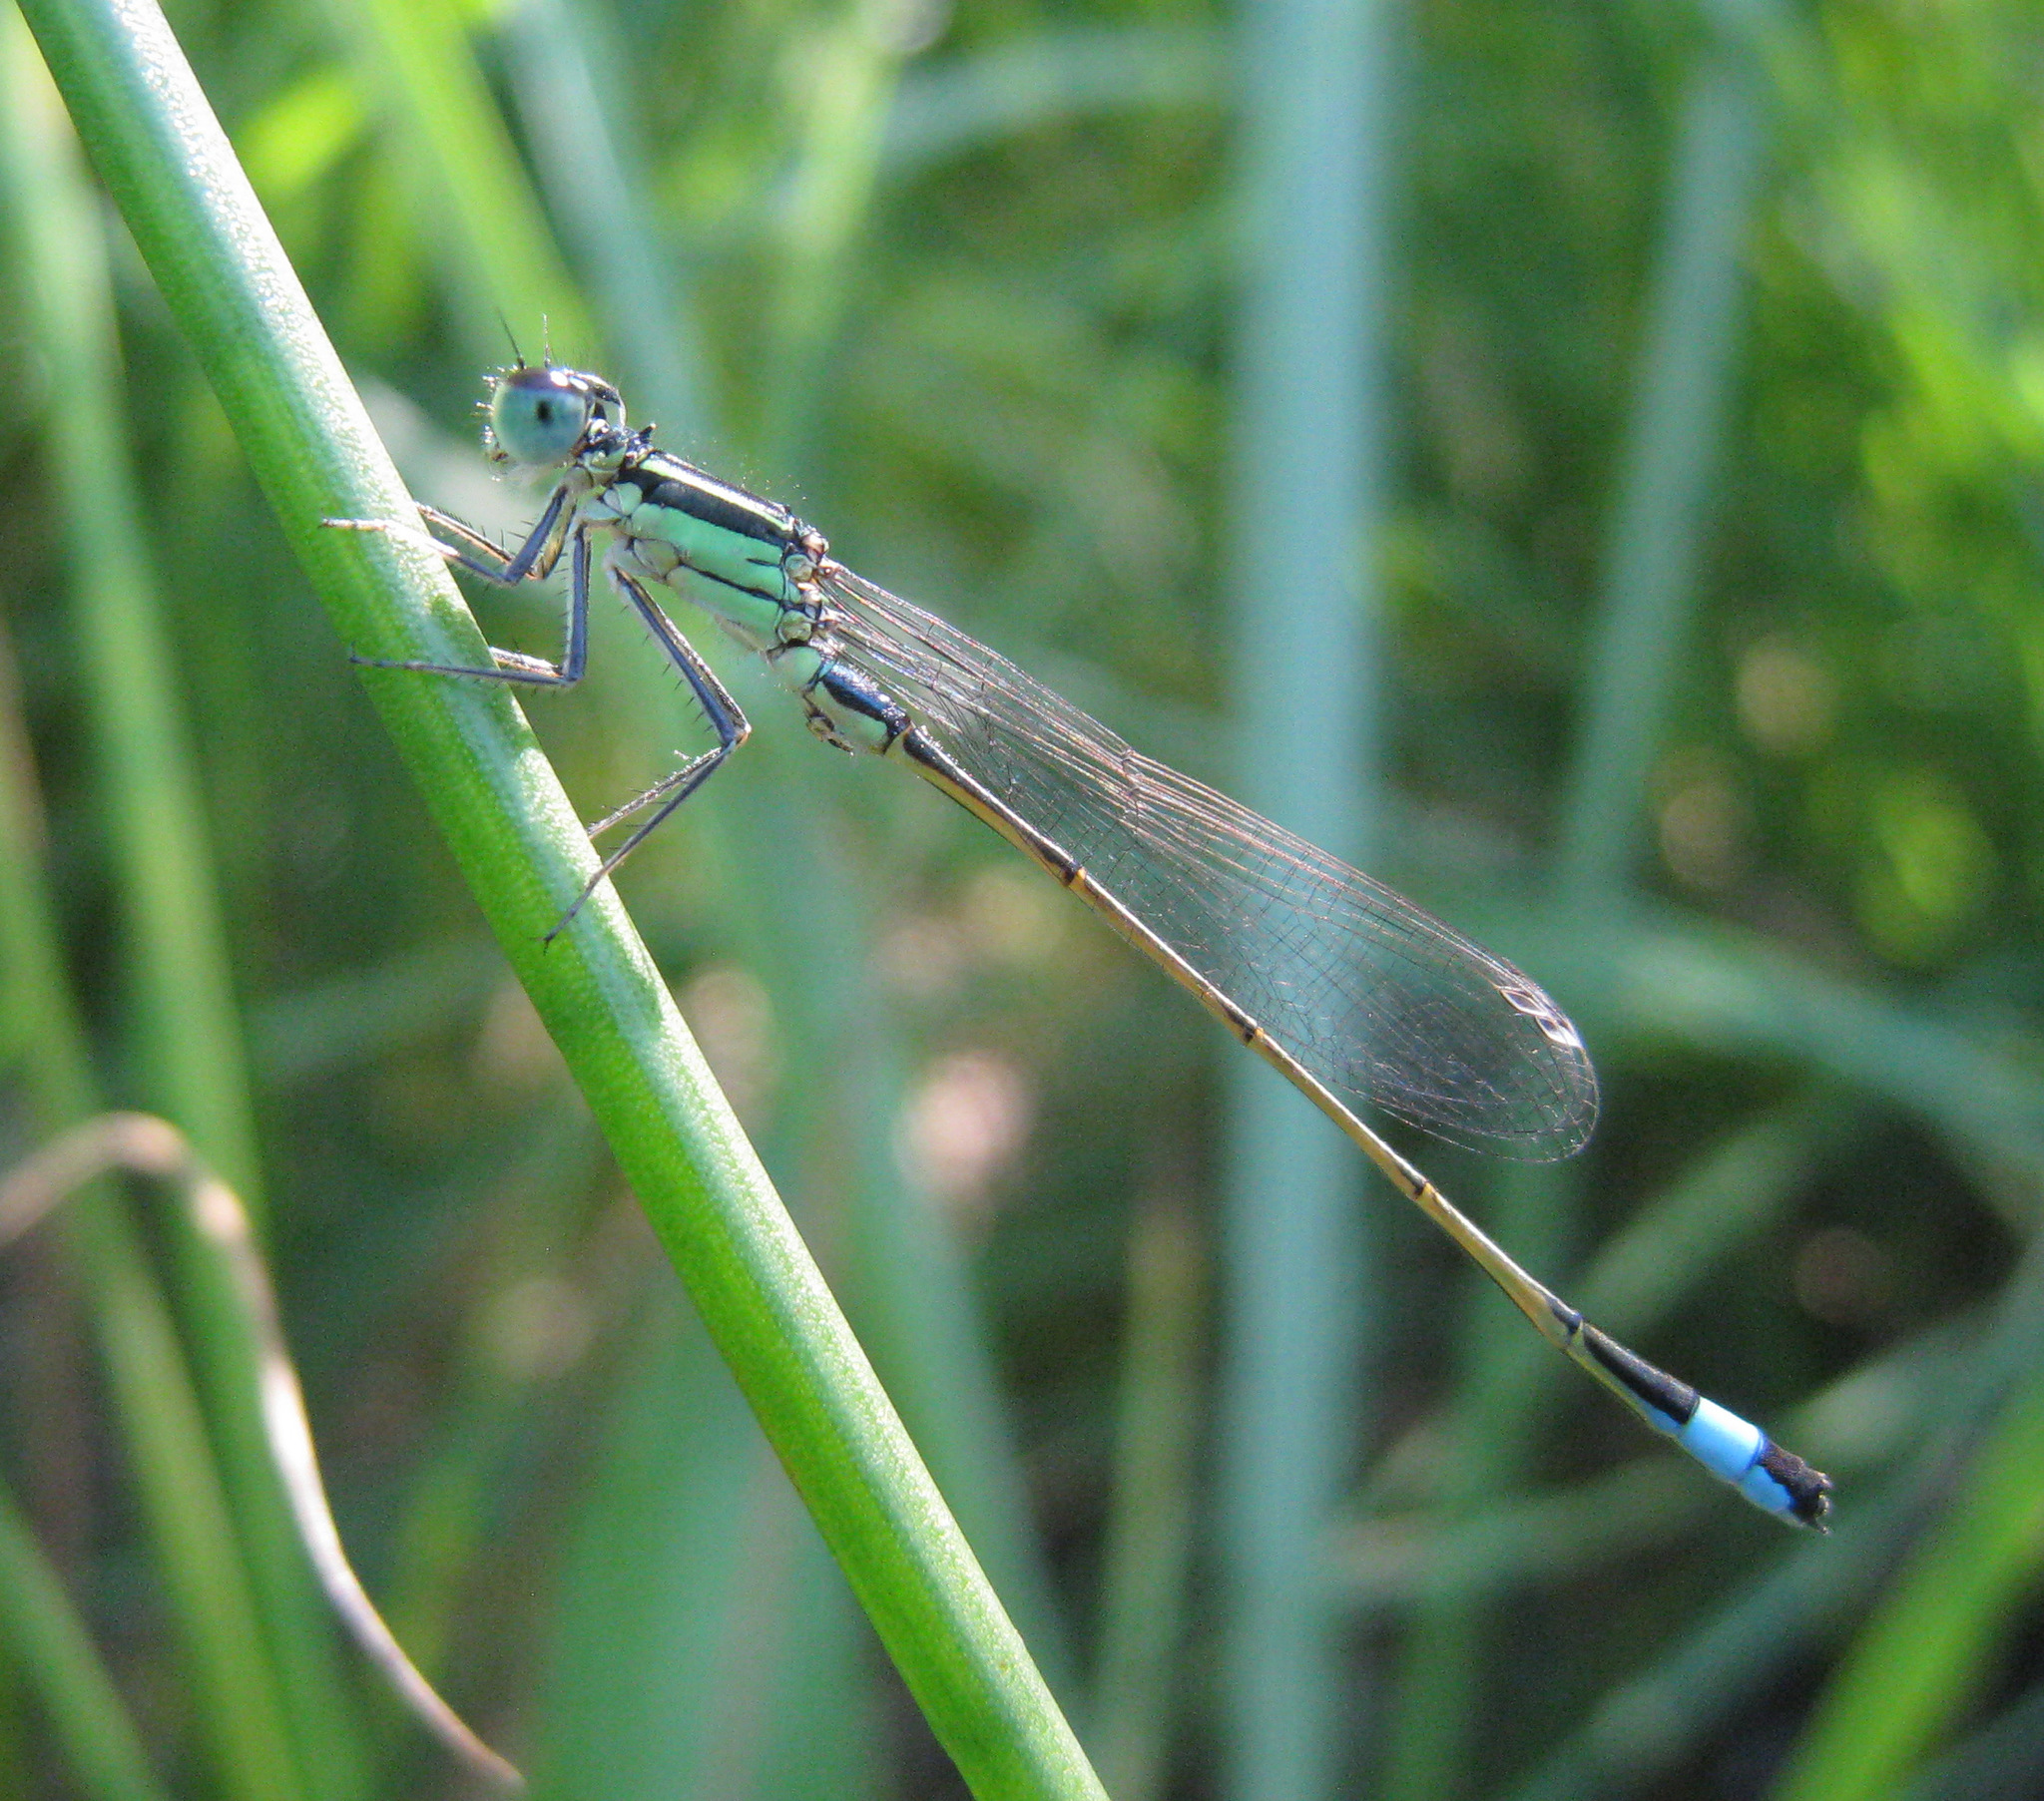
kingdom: Animalia
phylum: Arthropoda
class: Insecta
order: Odonata
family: Coenagrionidae
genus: Ischnura
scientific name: Ischnura elegans
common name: Blue-tailed damselfly
